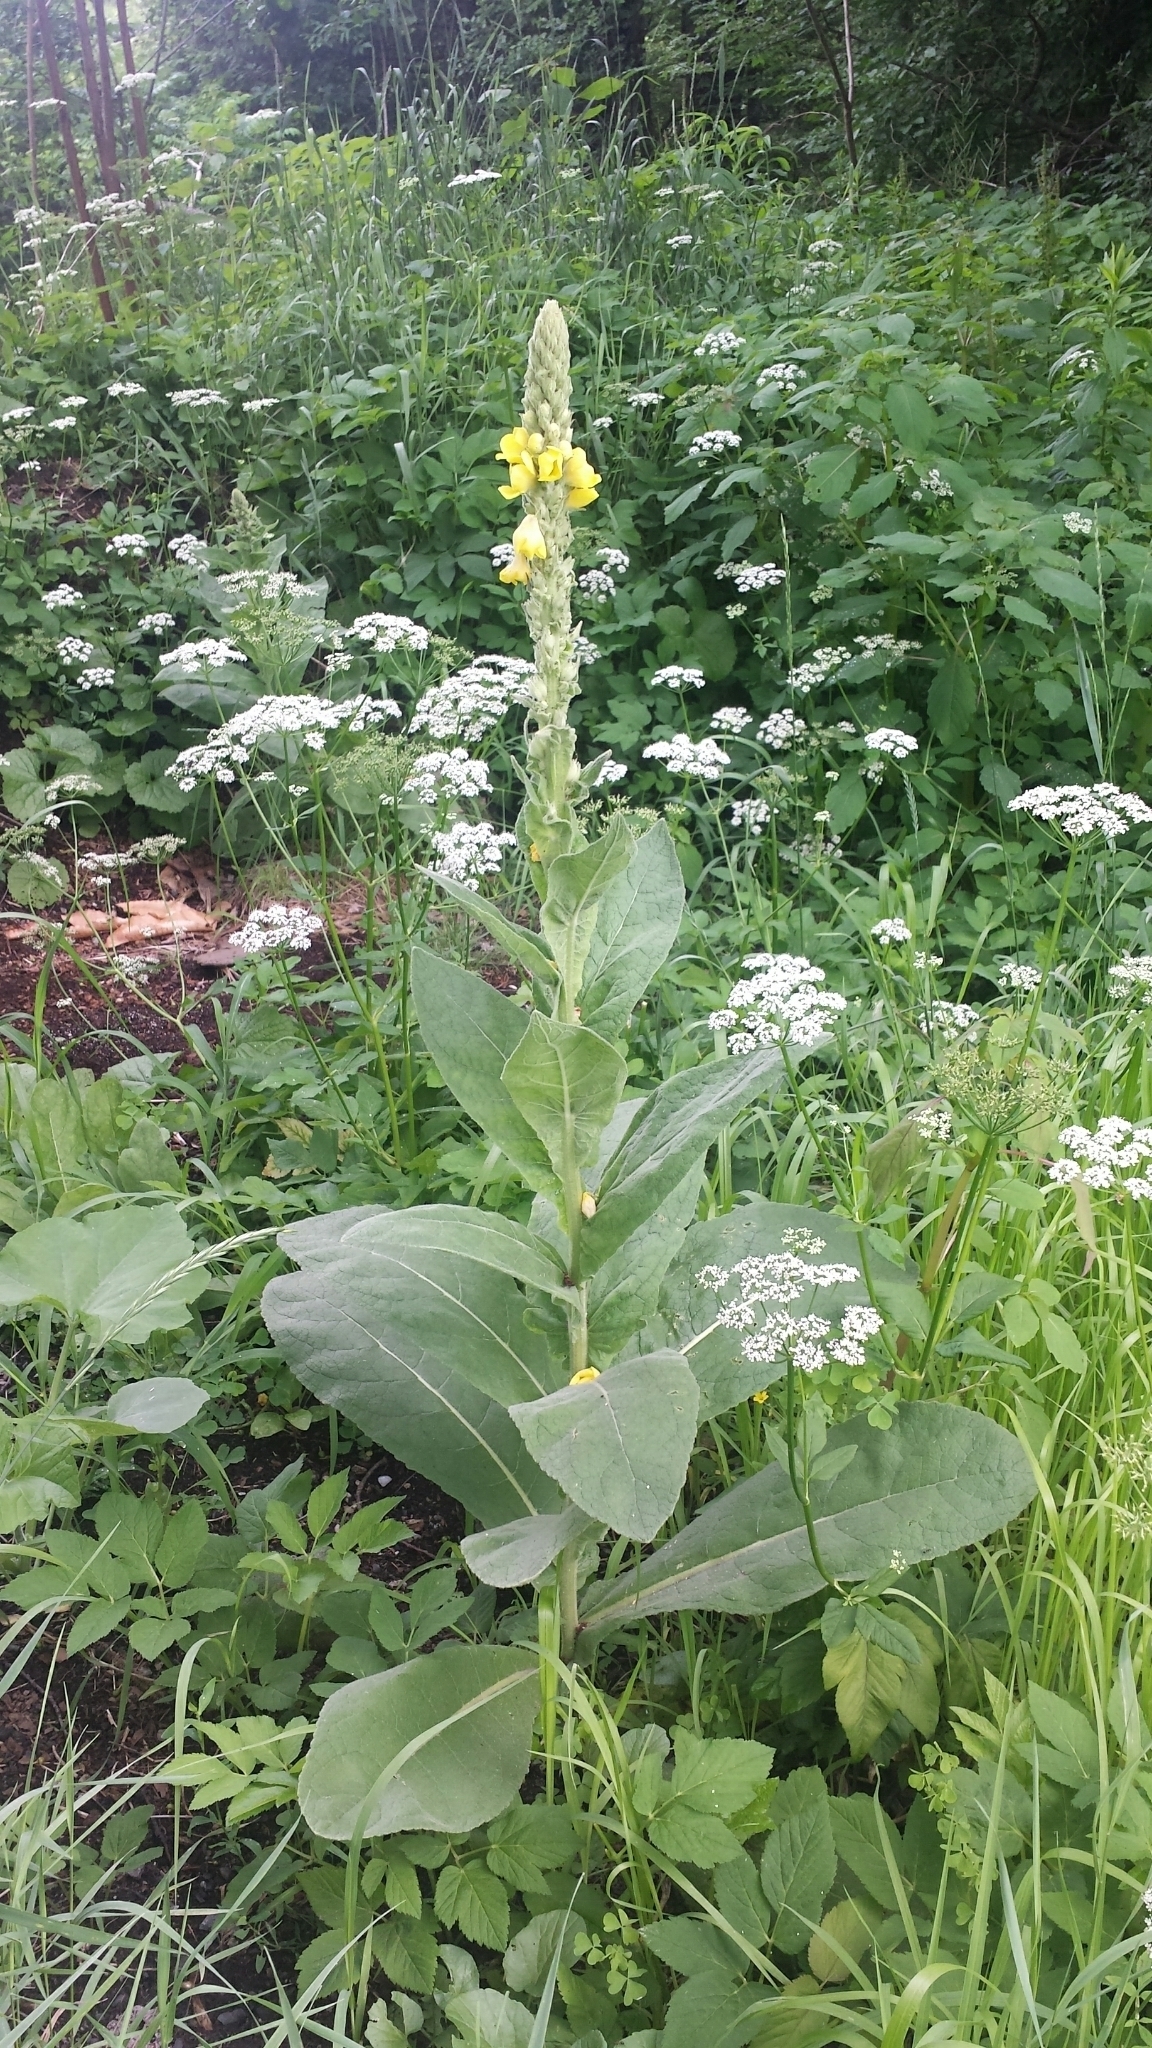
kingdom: Plantae
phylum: Tracheophyta
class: Magnoliopsida
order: Lamiales
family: Scrophulariaceae
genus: Verbascum
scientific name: Verbascum thapsus
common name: Common mullein
